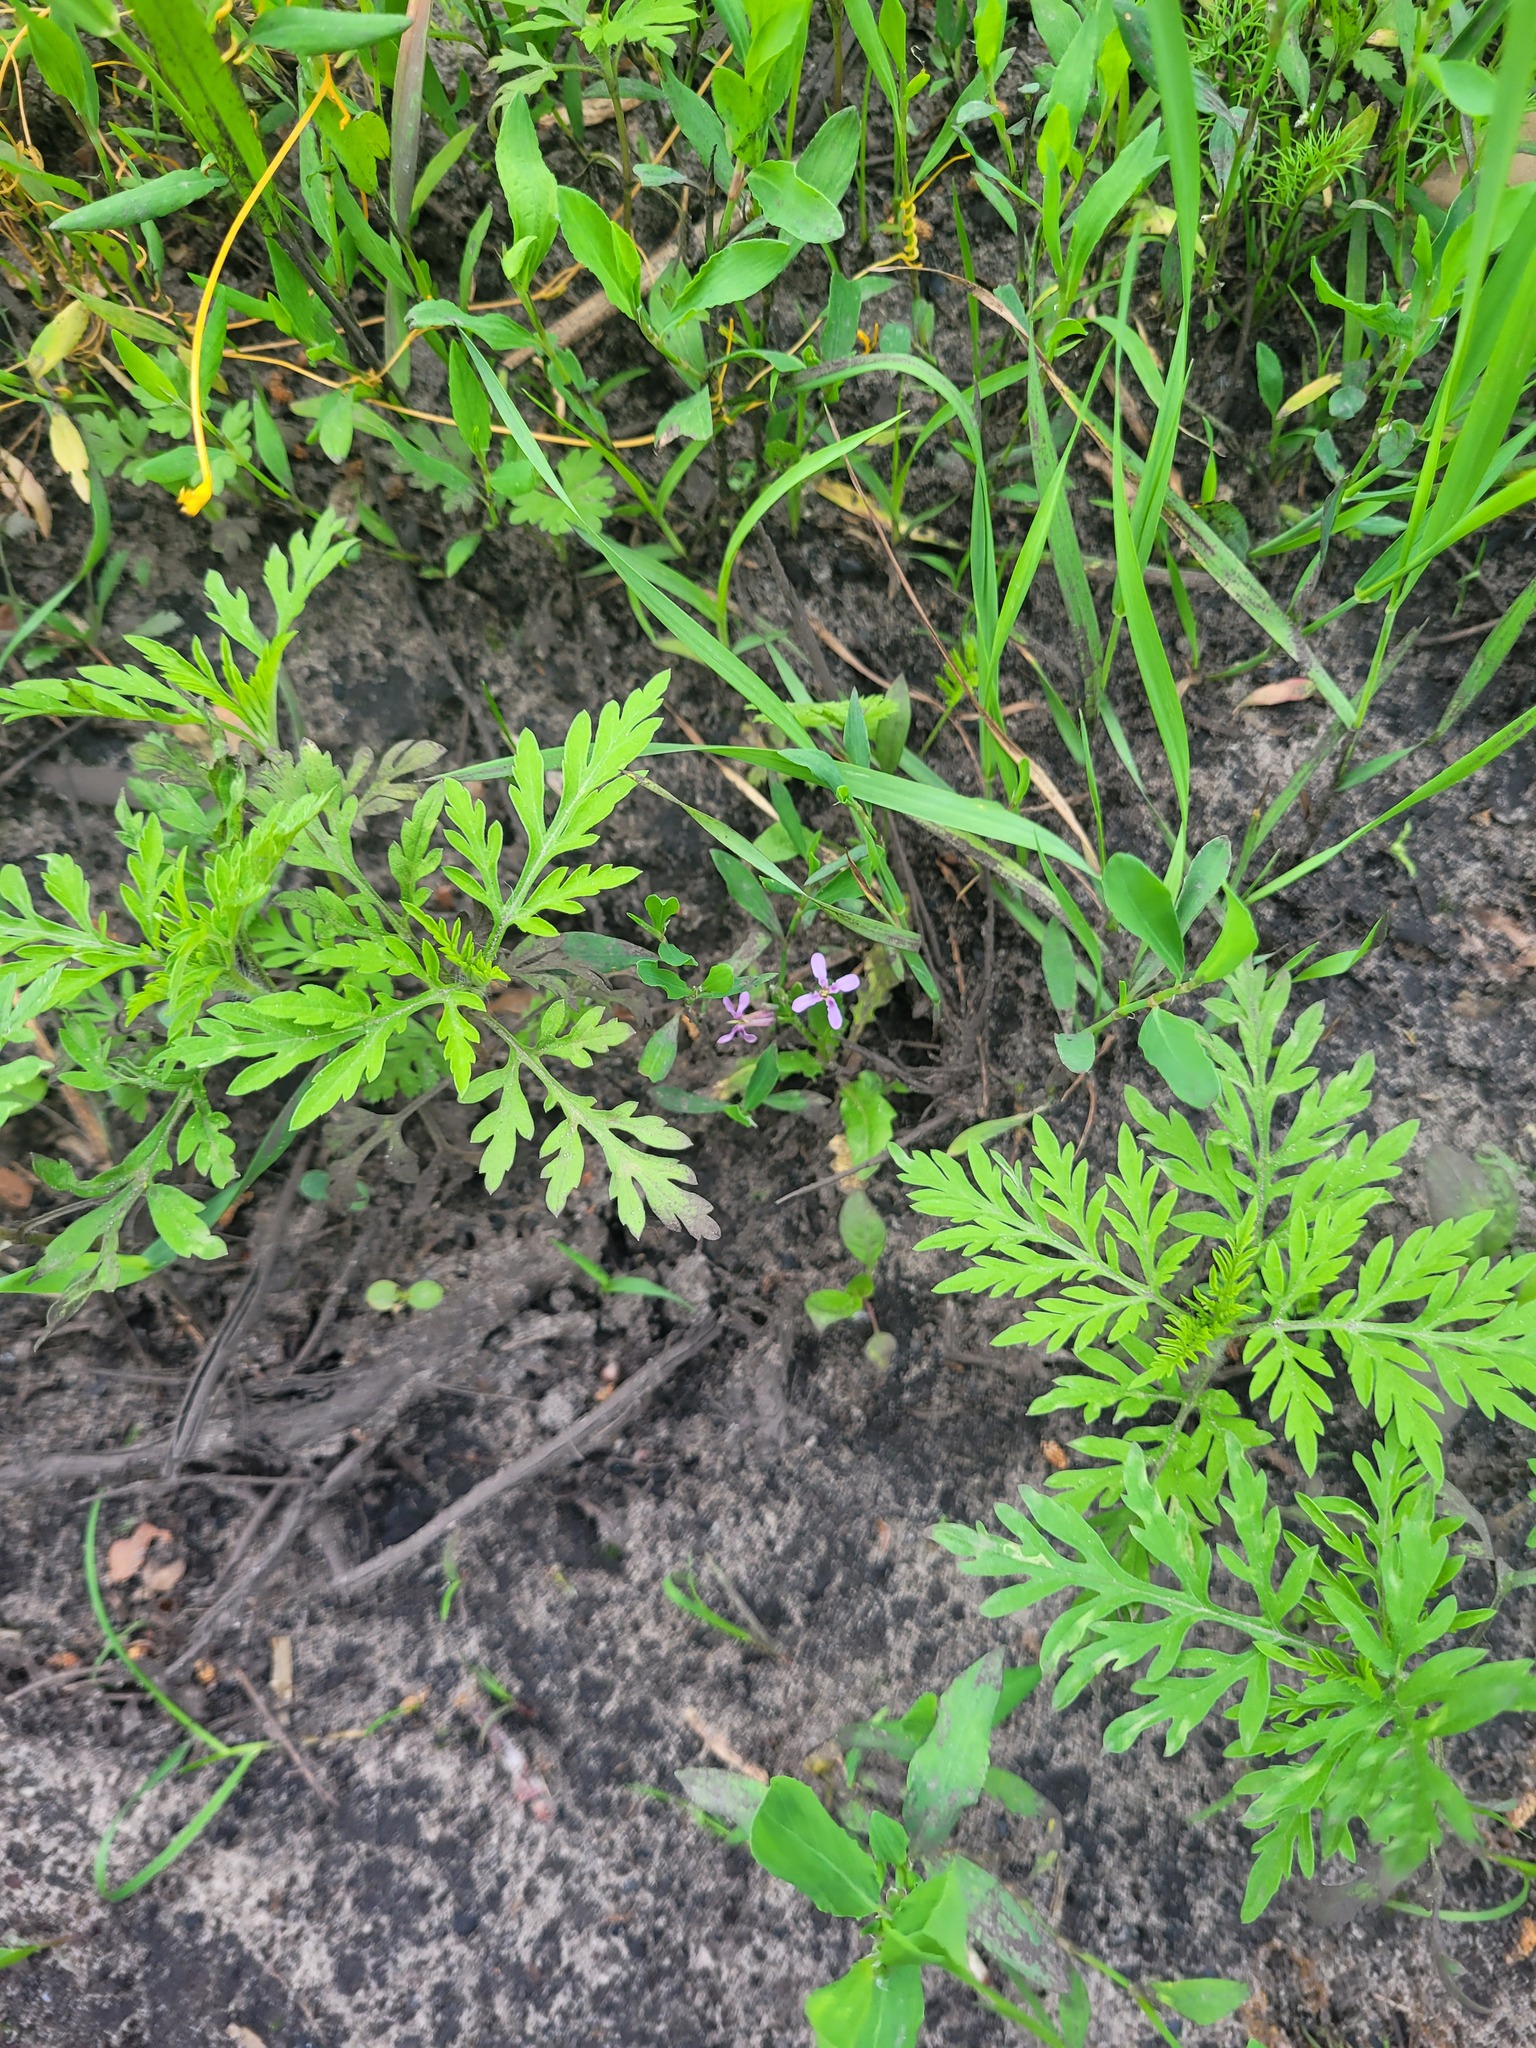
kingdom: Plantae
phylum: Tracheophyta
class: Magnoliopsida
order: Brassicales
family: Brassicaceae
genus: Chorispora
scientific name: Chorispora tenella
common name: Crossflower
